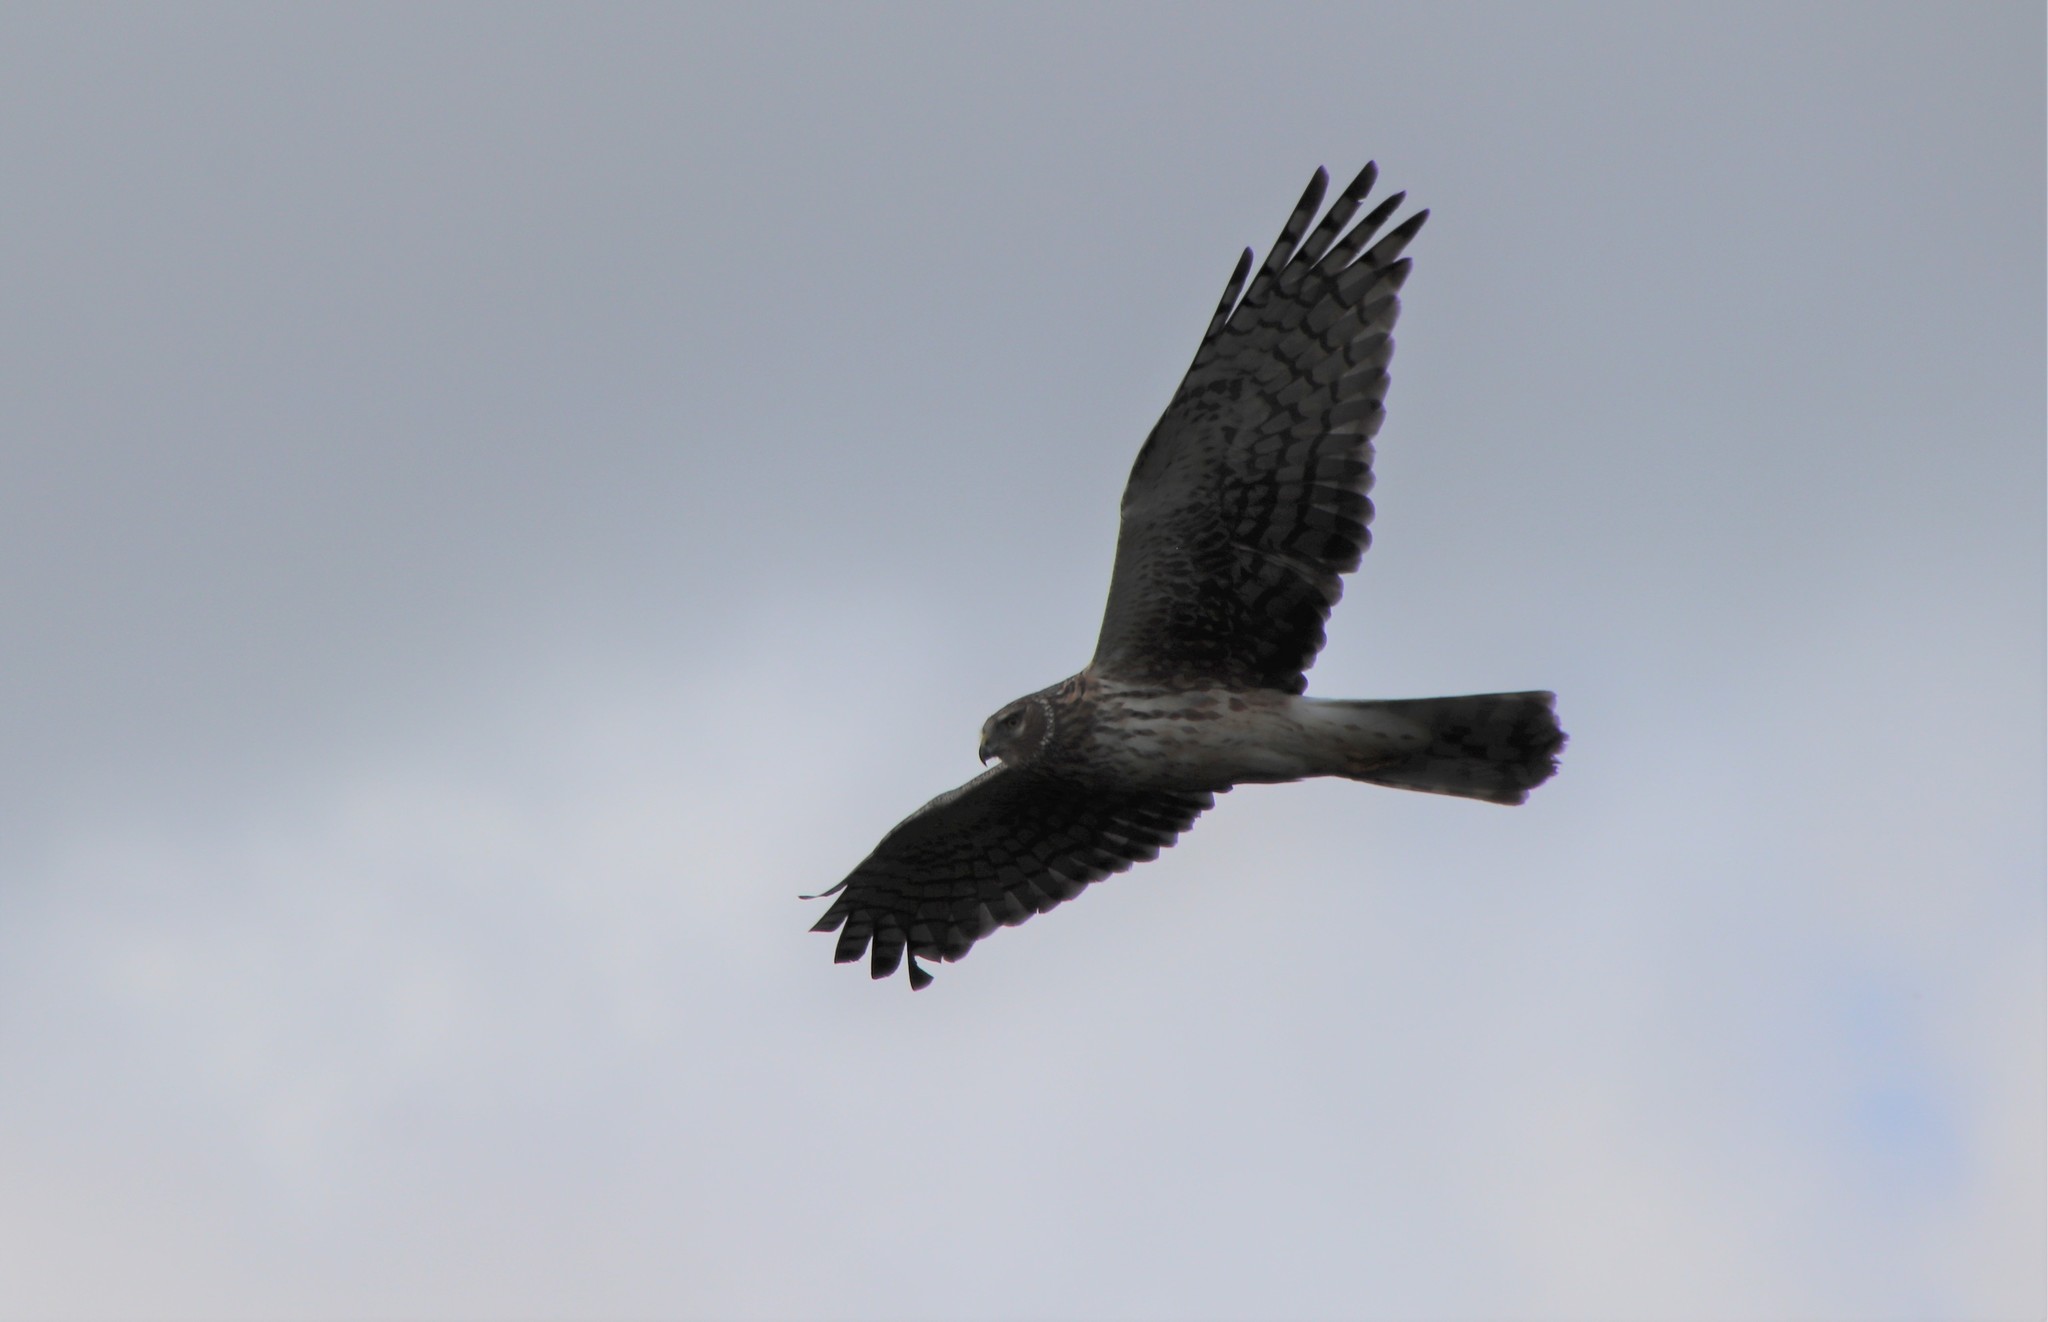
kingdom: Animalia
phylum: Chordata
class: Aves
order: Accipitriformes
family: Accipitridae
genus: Circus
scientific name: Circus cyaneus
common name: Hen harrier
